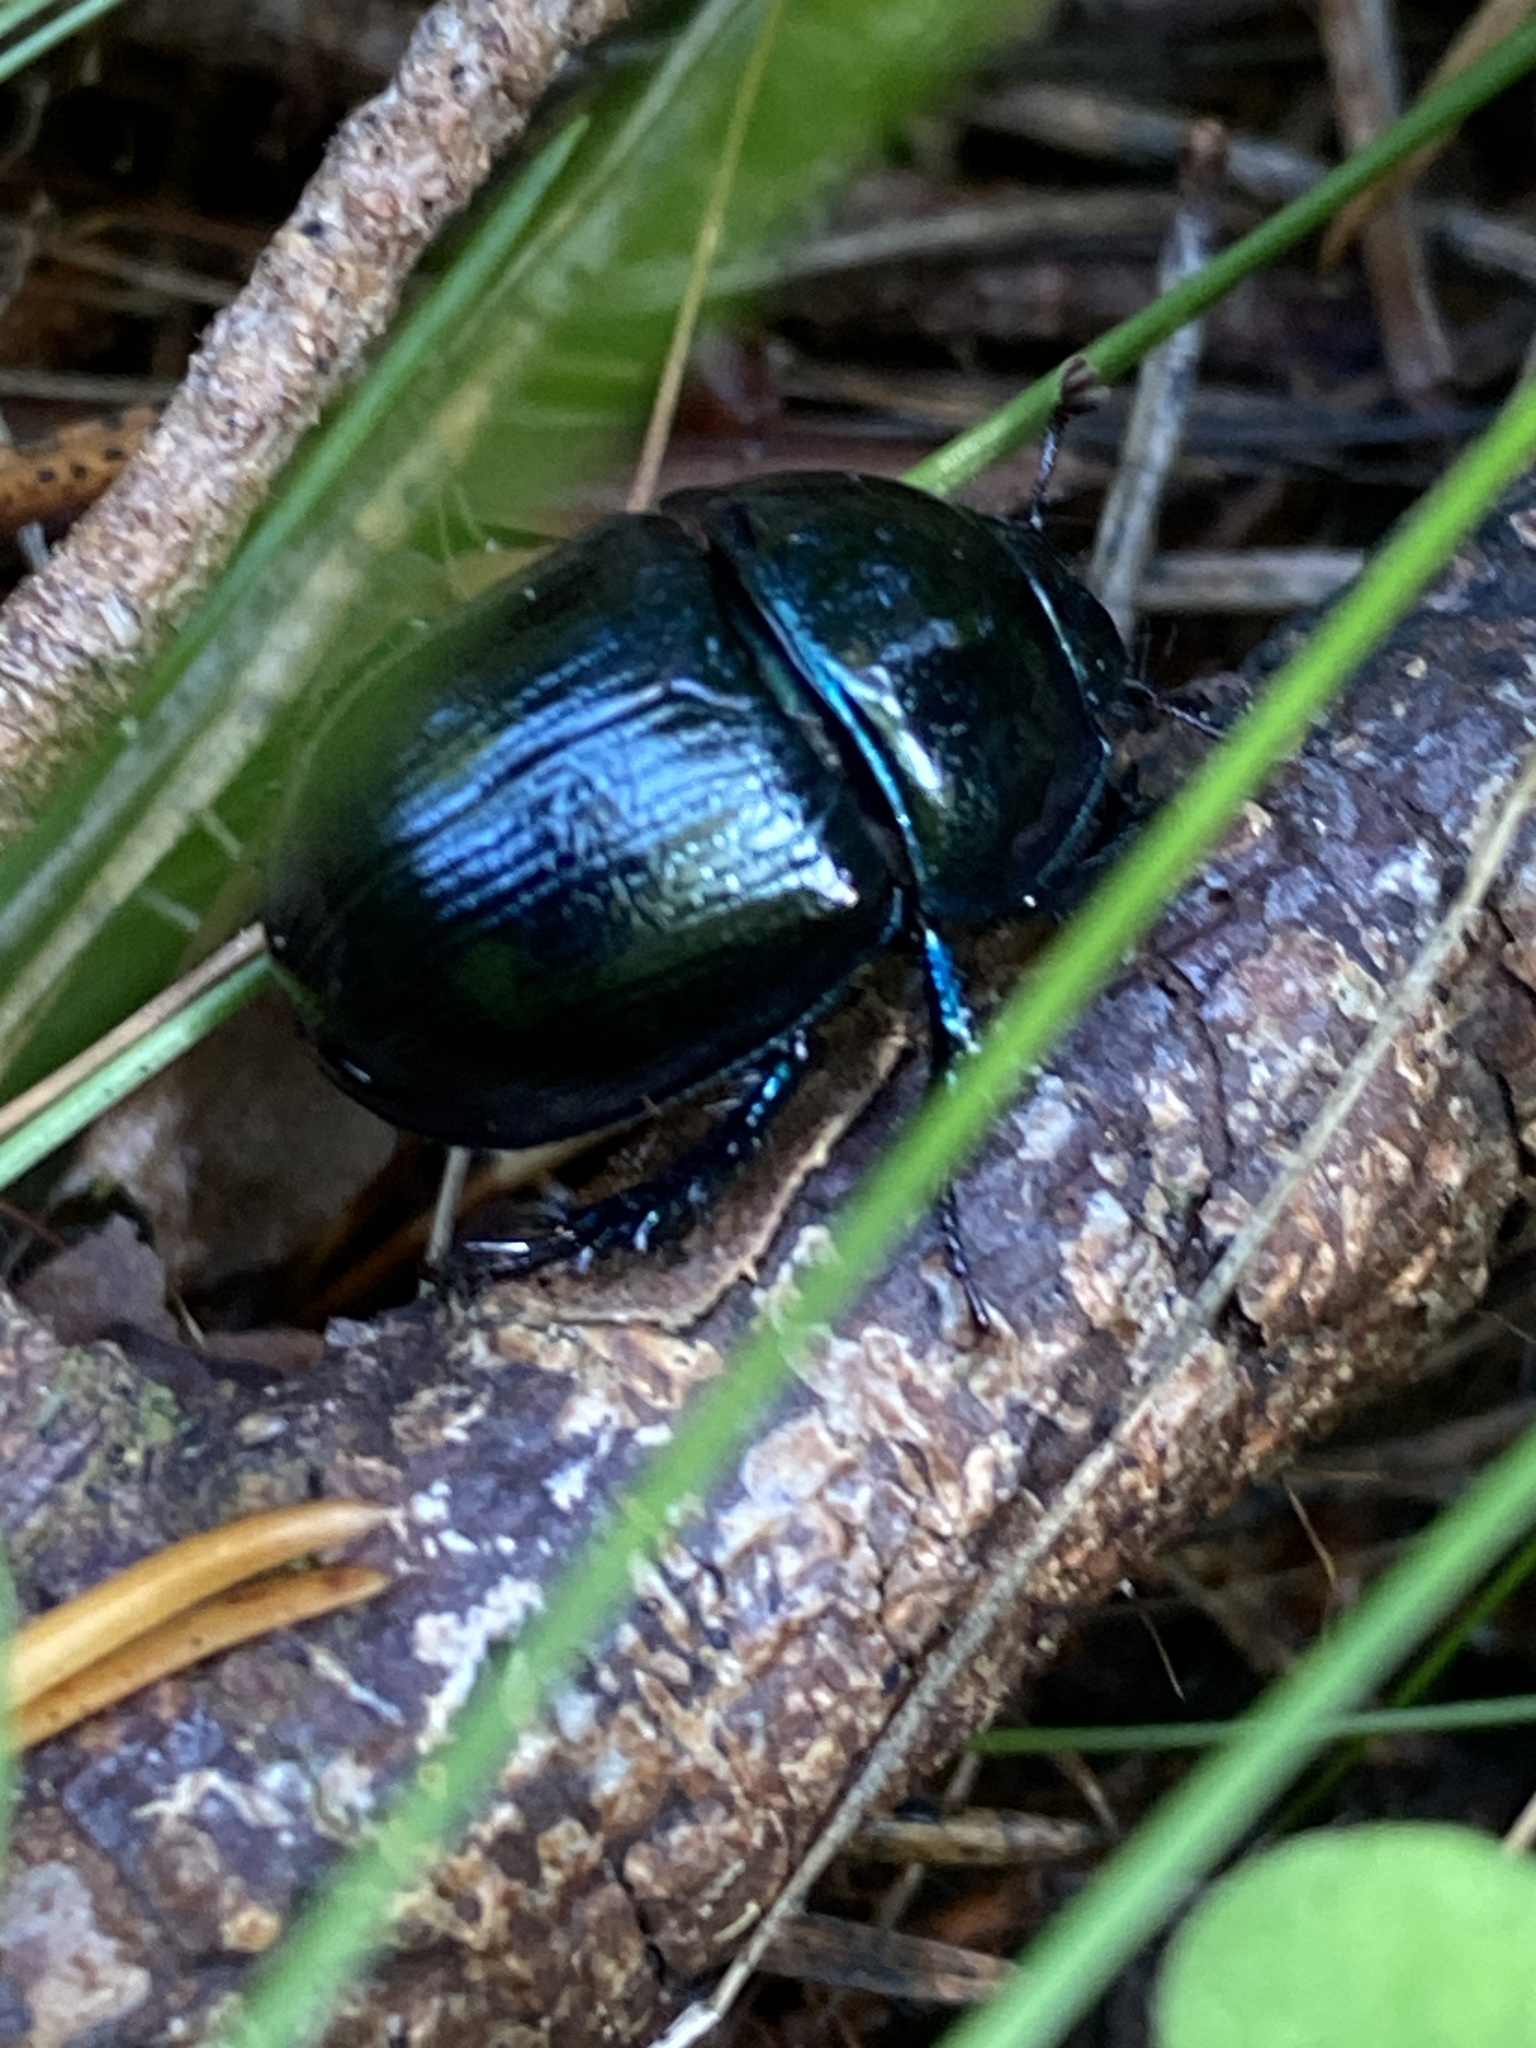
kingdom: Animalia
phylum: Arthropoda
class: Insecta
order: Coleoptera
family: Geotrupidae
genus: Anoplotrupes
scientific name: Anoplotrupes stercorosus
